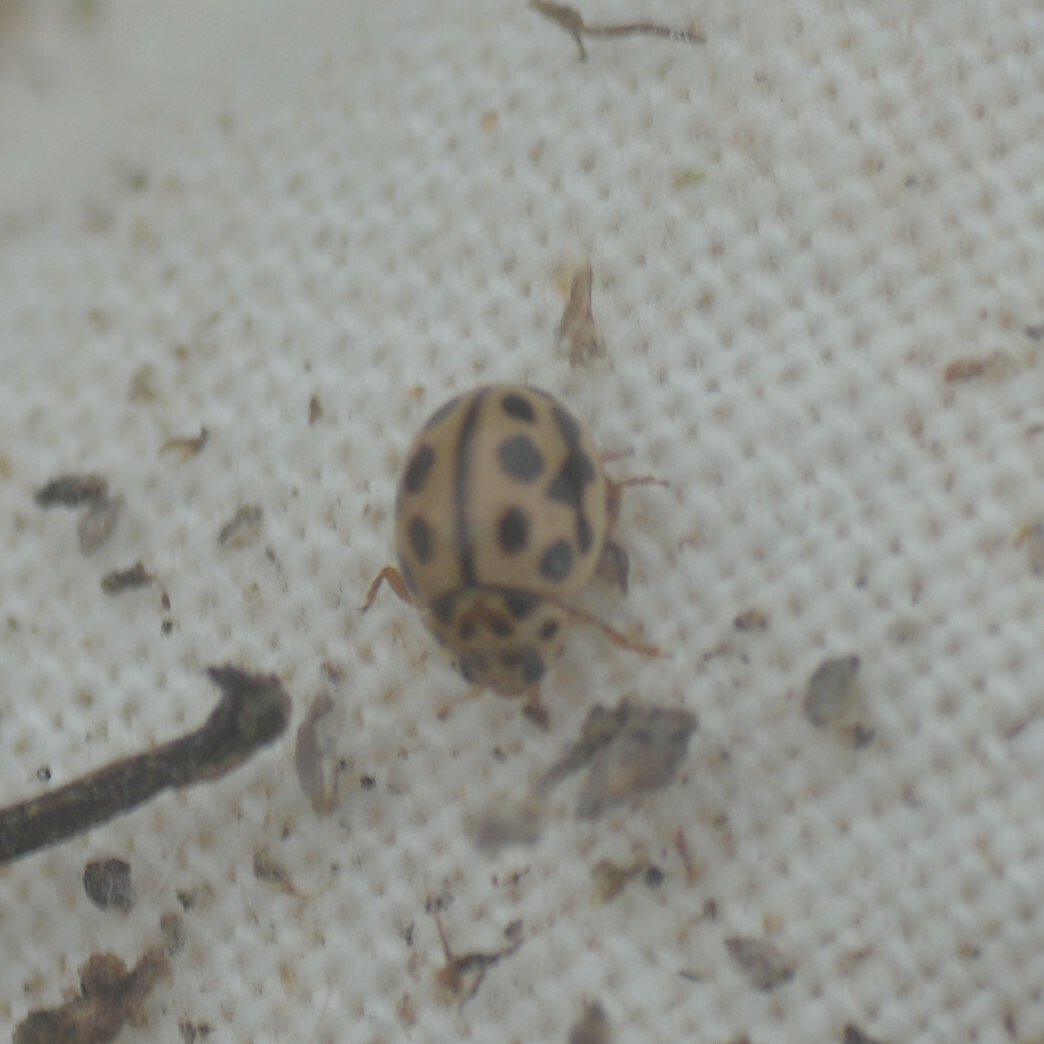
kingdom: Animalia
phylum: Arthropoda
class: Insecta
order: Coleoptera
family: Coccinellidae
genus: Tytthaspis
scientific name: Tytthaspis sedecimpunctata
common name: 16-spot ladybird
